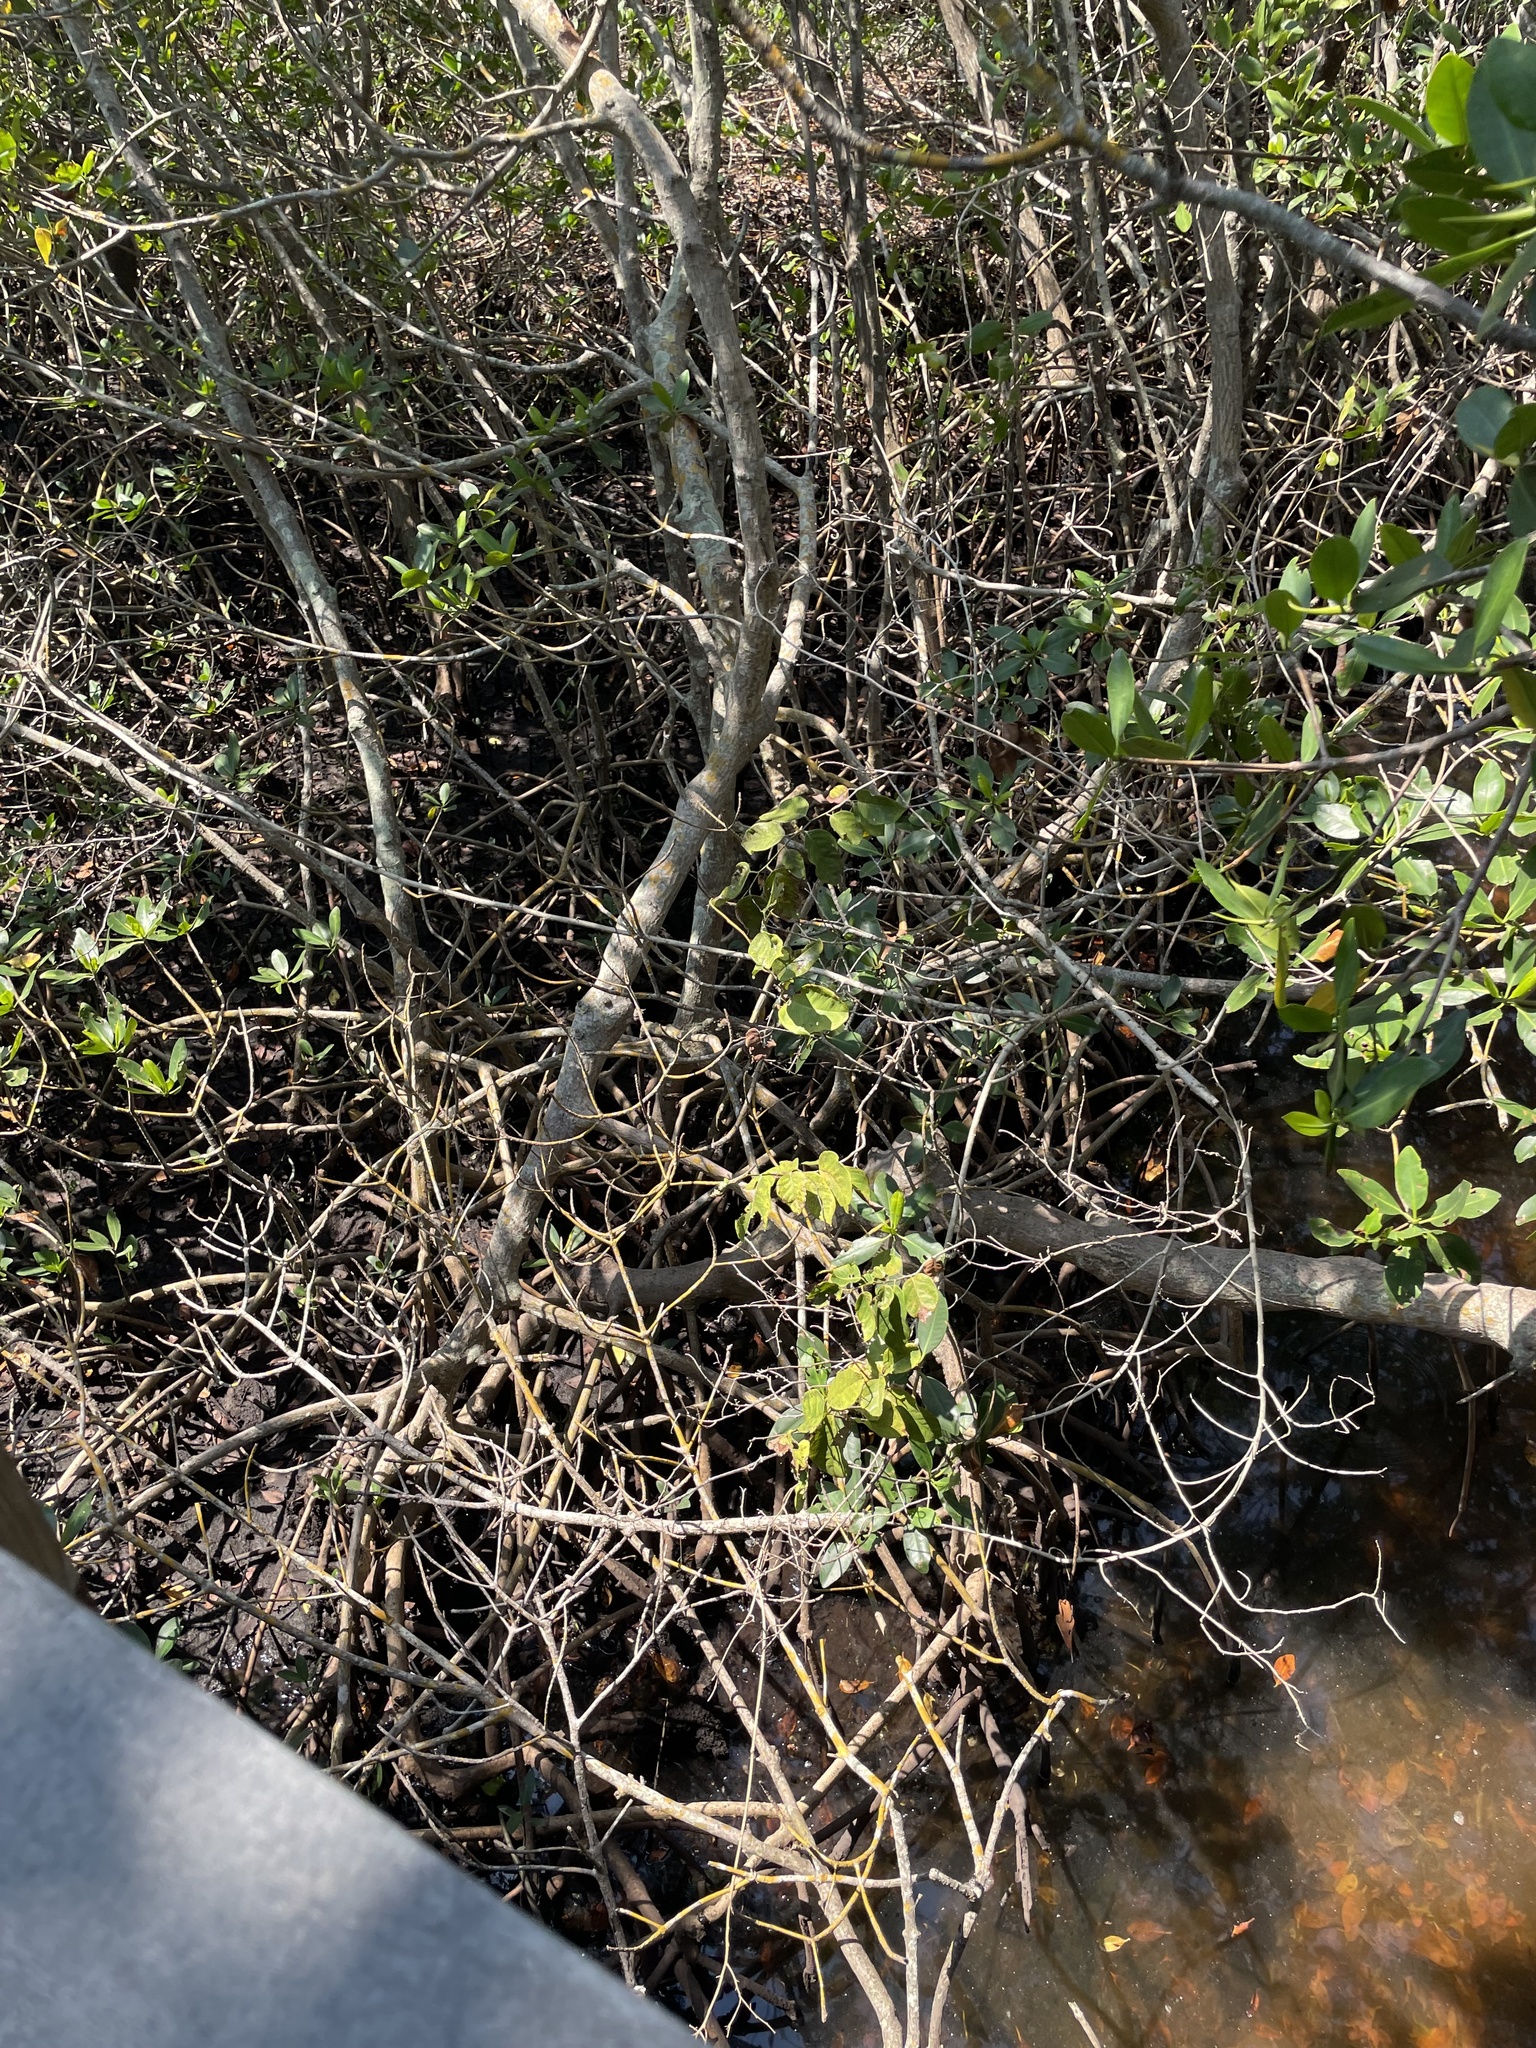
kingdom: Plantae
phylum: Tracheophyta
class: Magnoliopsida
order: Malpighiales
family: Rhizophoraceae
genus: Rhizophora
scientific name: Rhizophora mangle
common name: Red mangrove
